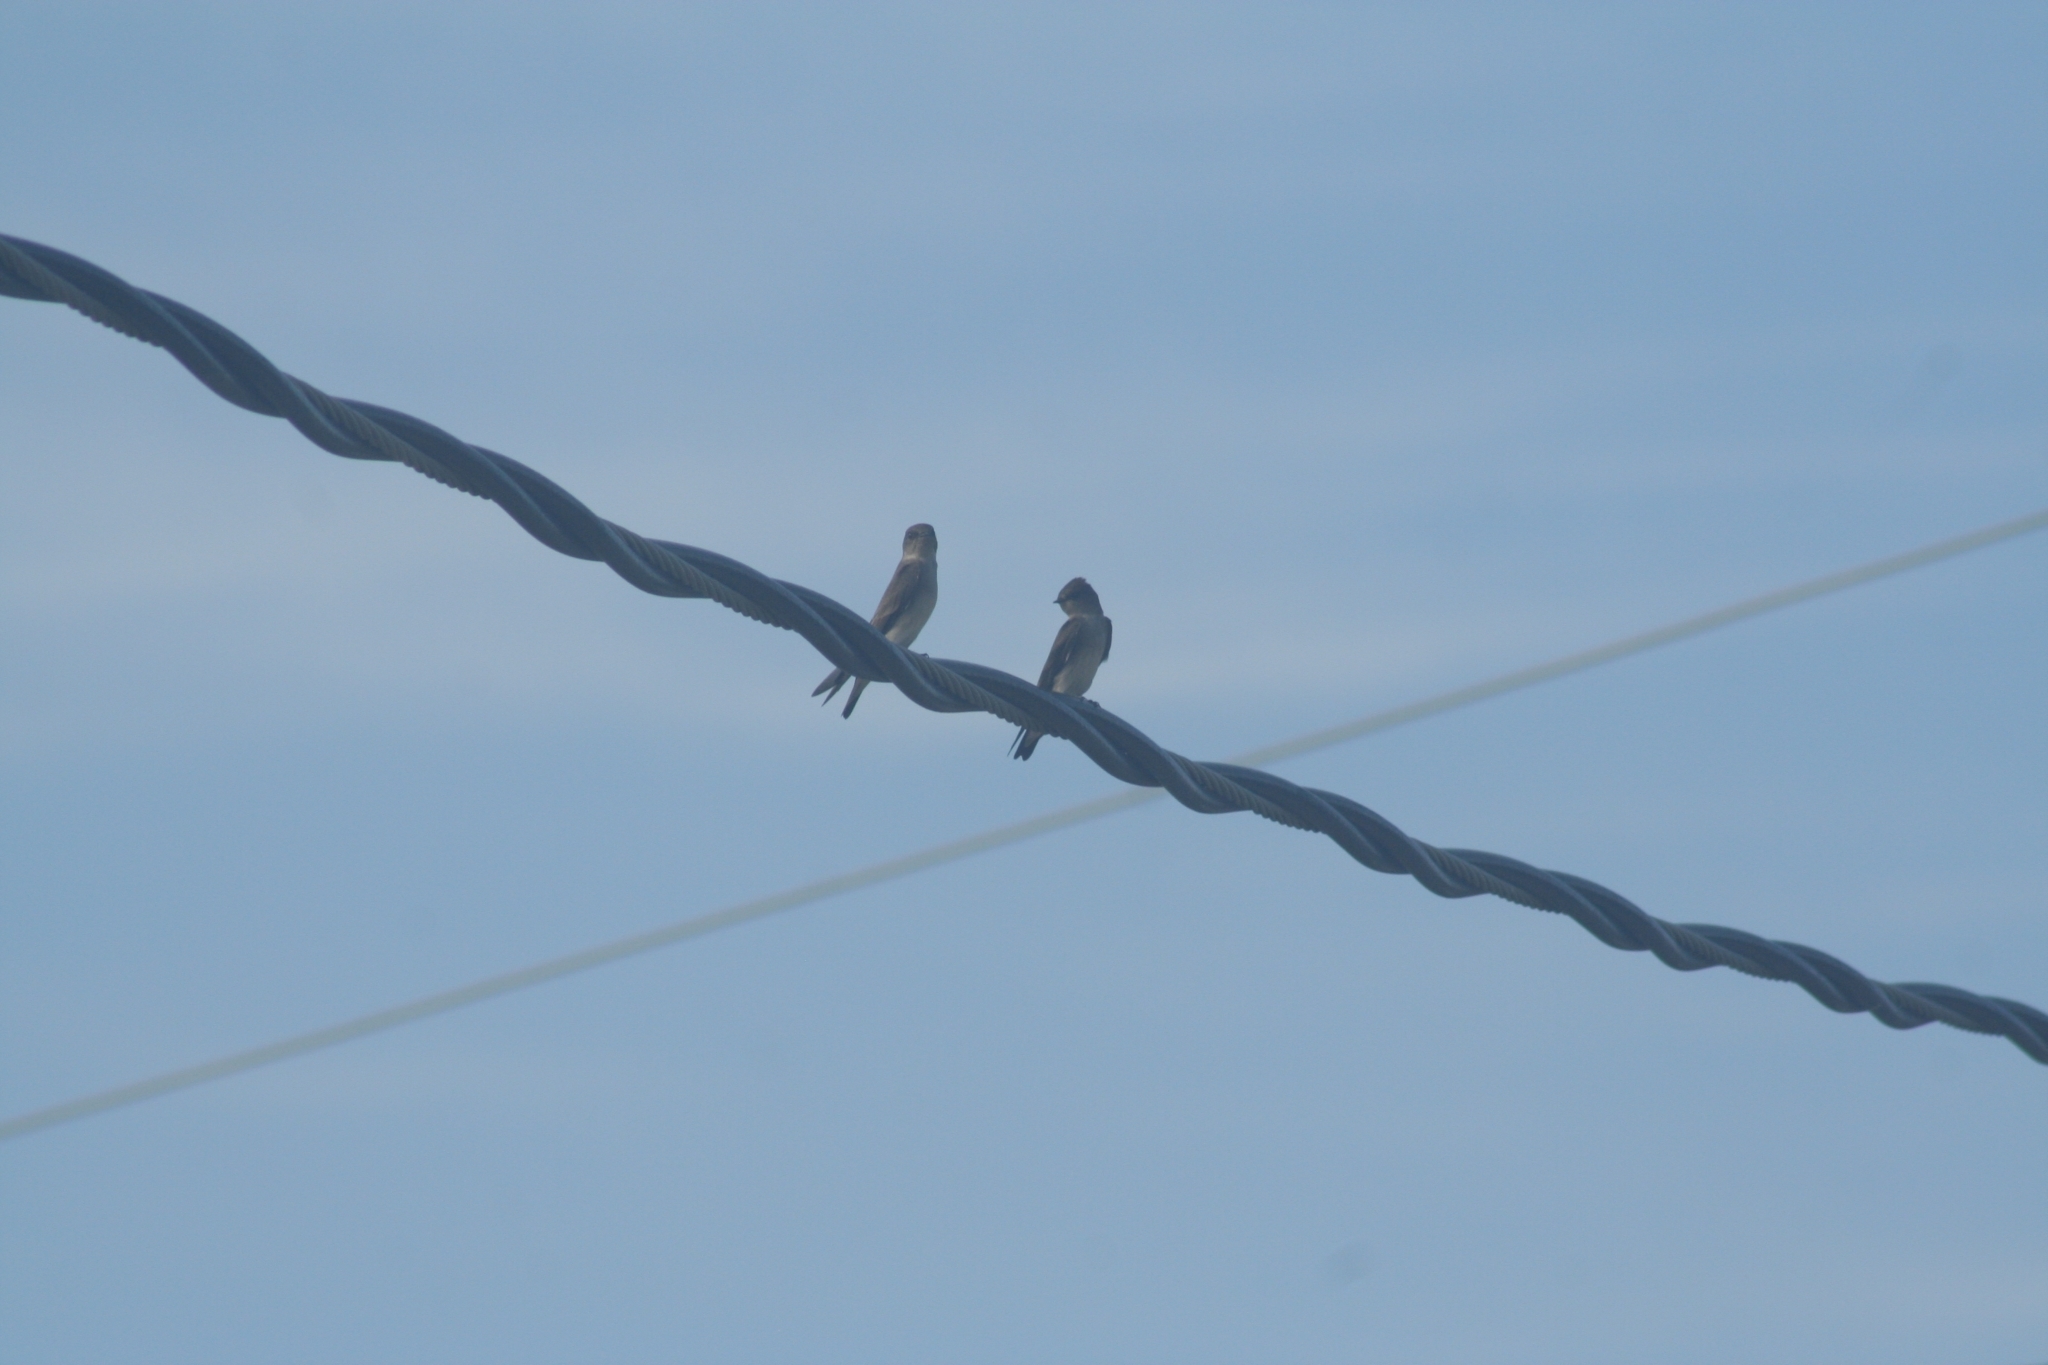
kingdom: Animalia
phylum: Chordata
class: Aves
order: Passeriformes
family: Hirundinidae
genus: Stelgidopteryx
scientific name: Stelgidopteryx serripennis
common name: Northern rough-winged swallow
